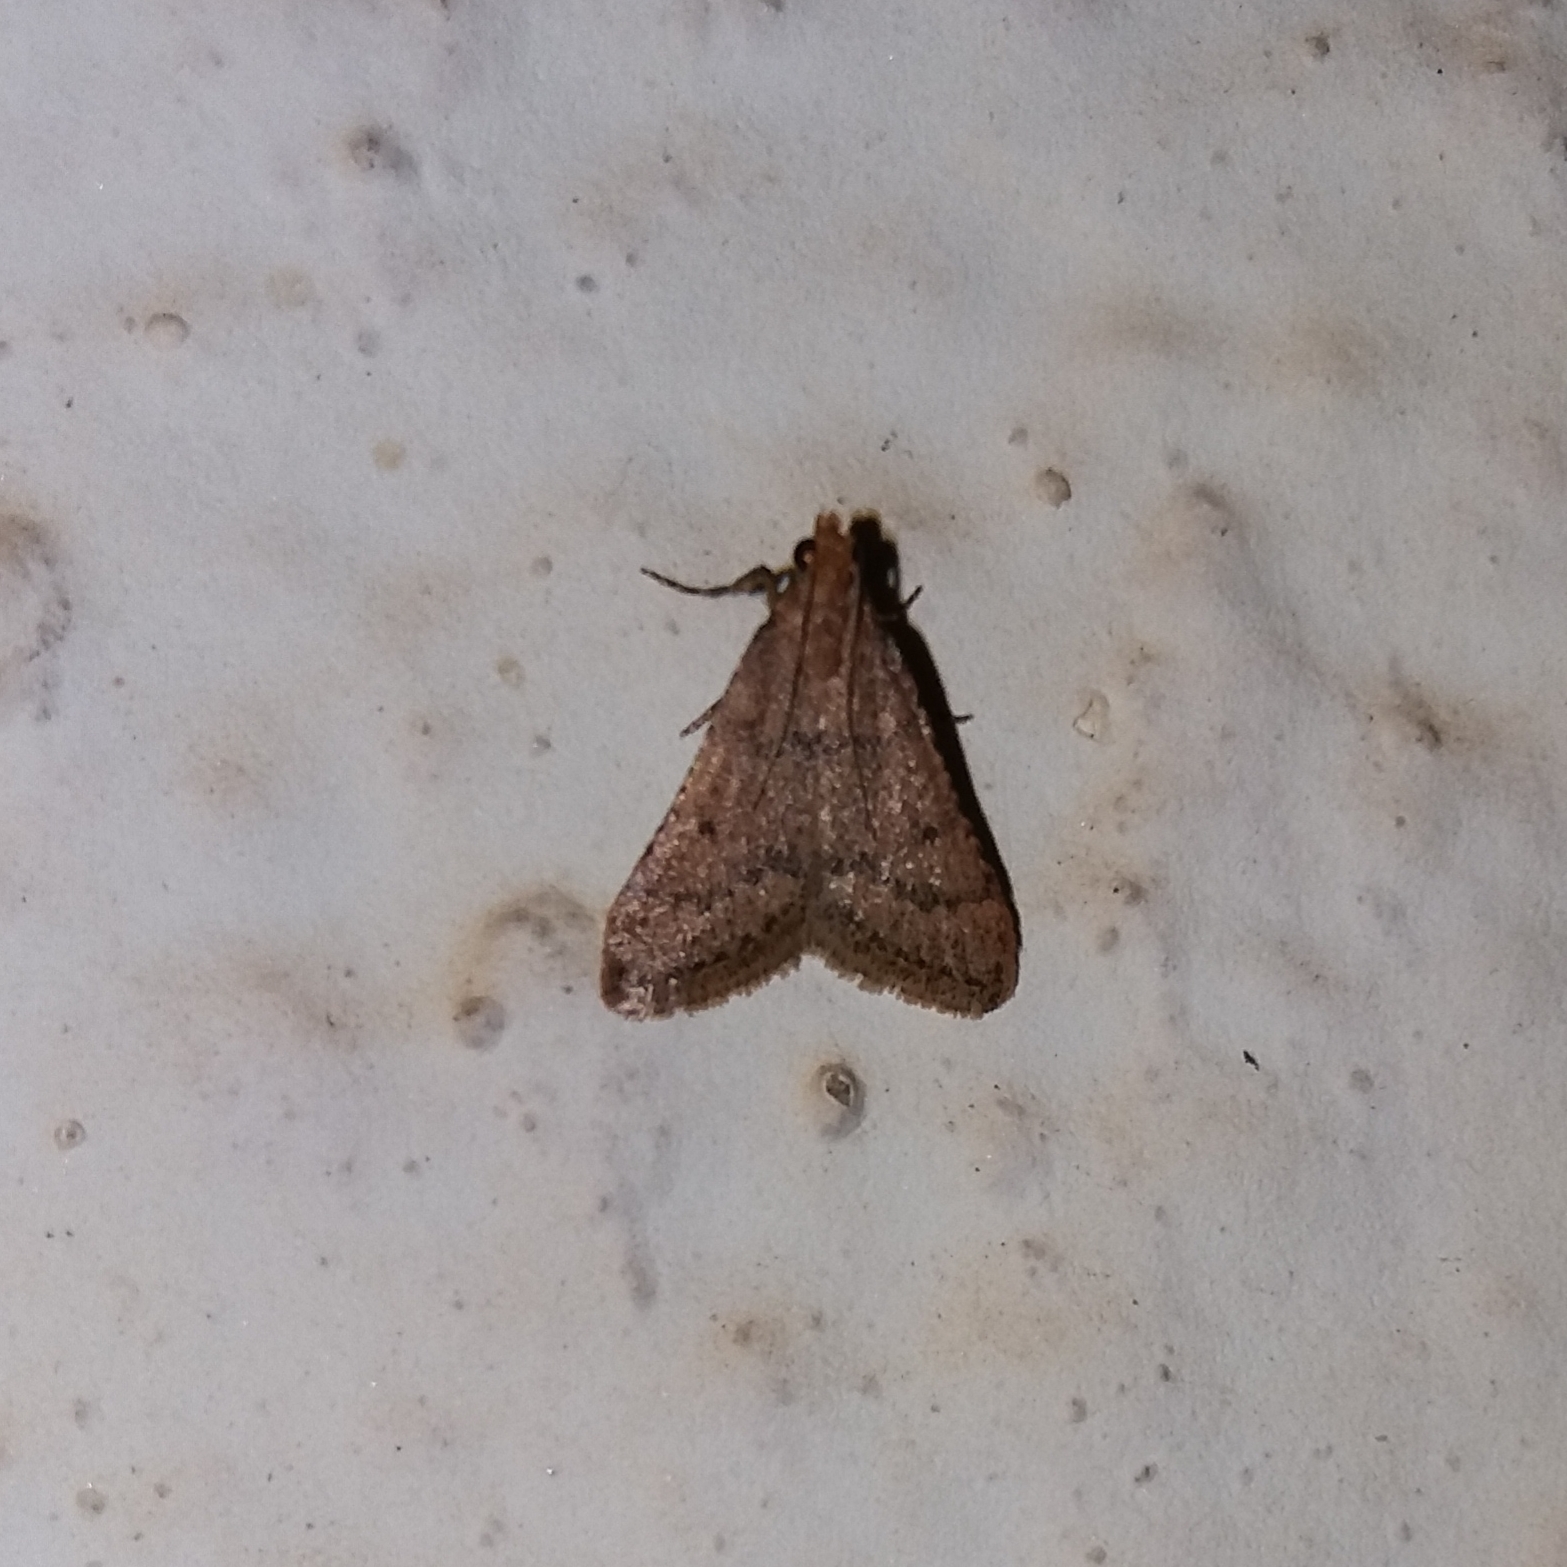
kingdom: Animalia
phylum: Arthropoda
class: Insecta
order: Lepidoptera
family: Pyralidae
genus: Bostra
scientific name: Bostra obsoletalis
